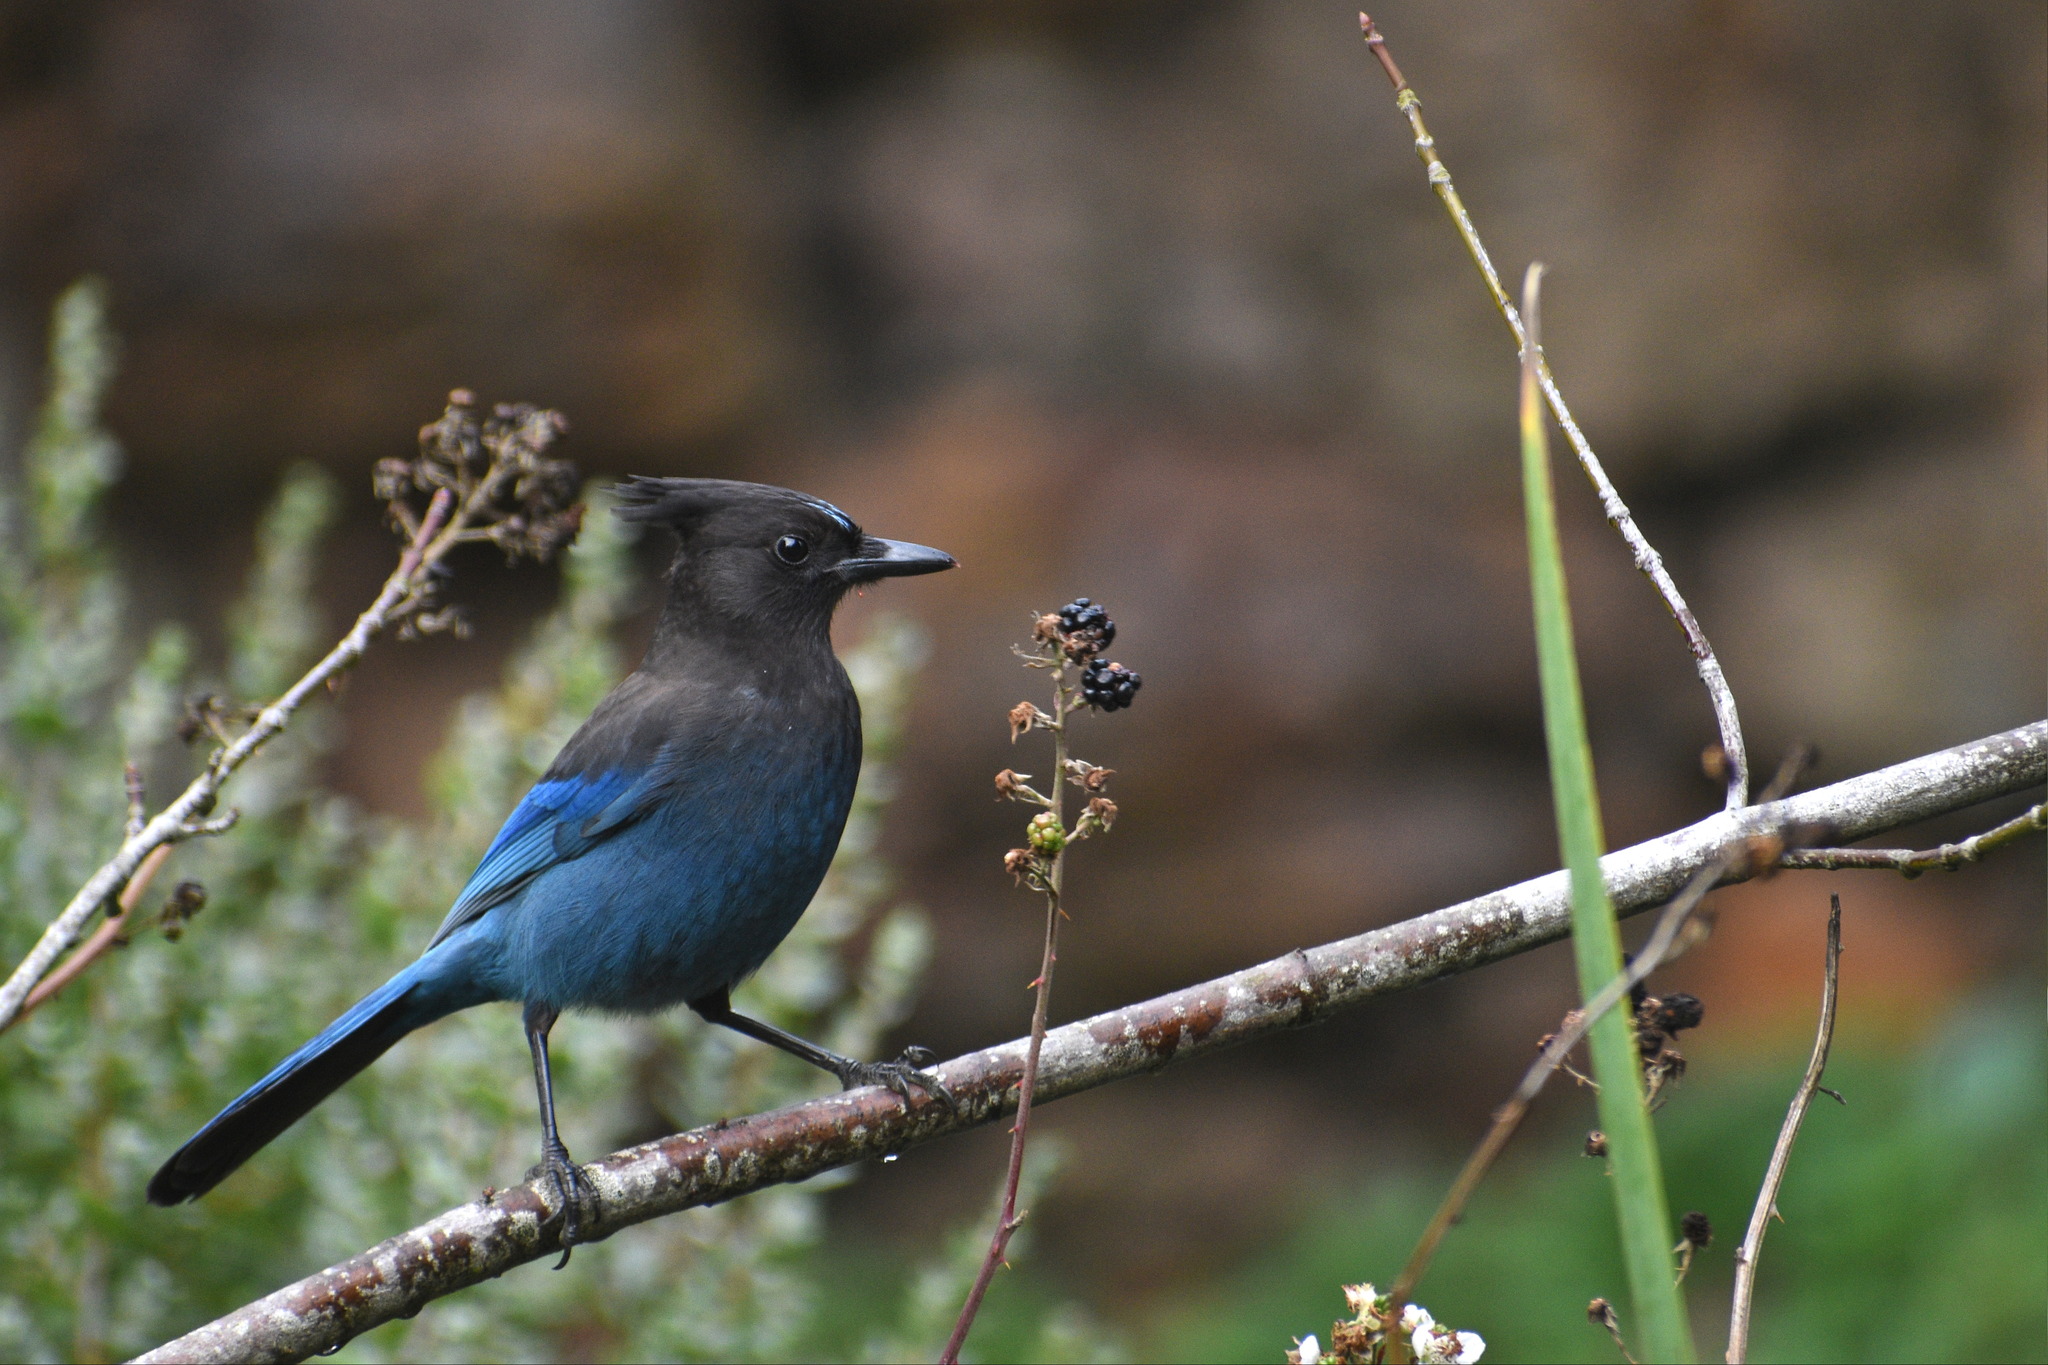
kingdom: Animalia
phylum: Chordata
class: Aves
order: Passeriformes
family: Corvidae
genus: Cyanocitta
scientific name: Cyanocitta stelleri
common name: Steller's jay
